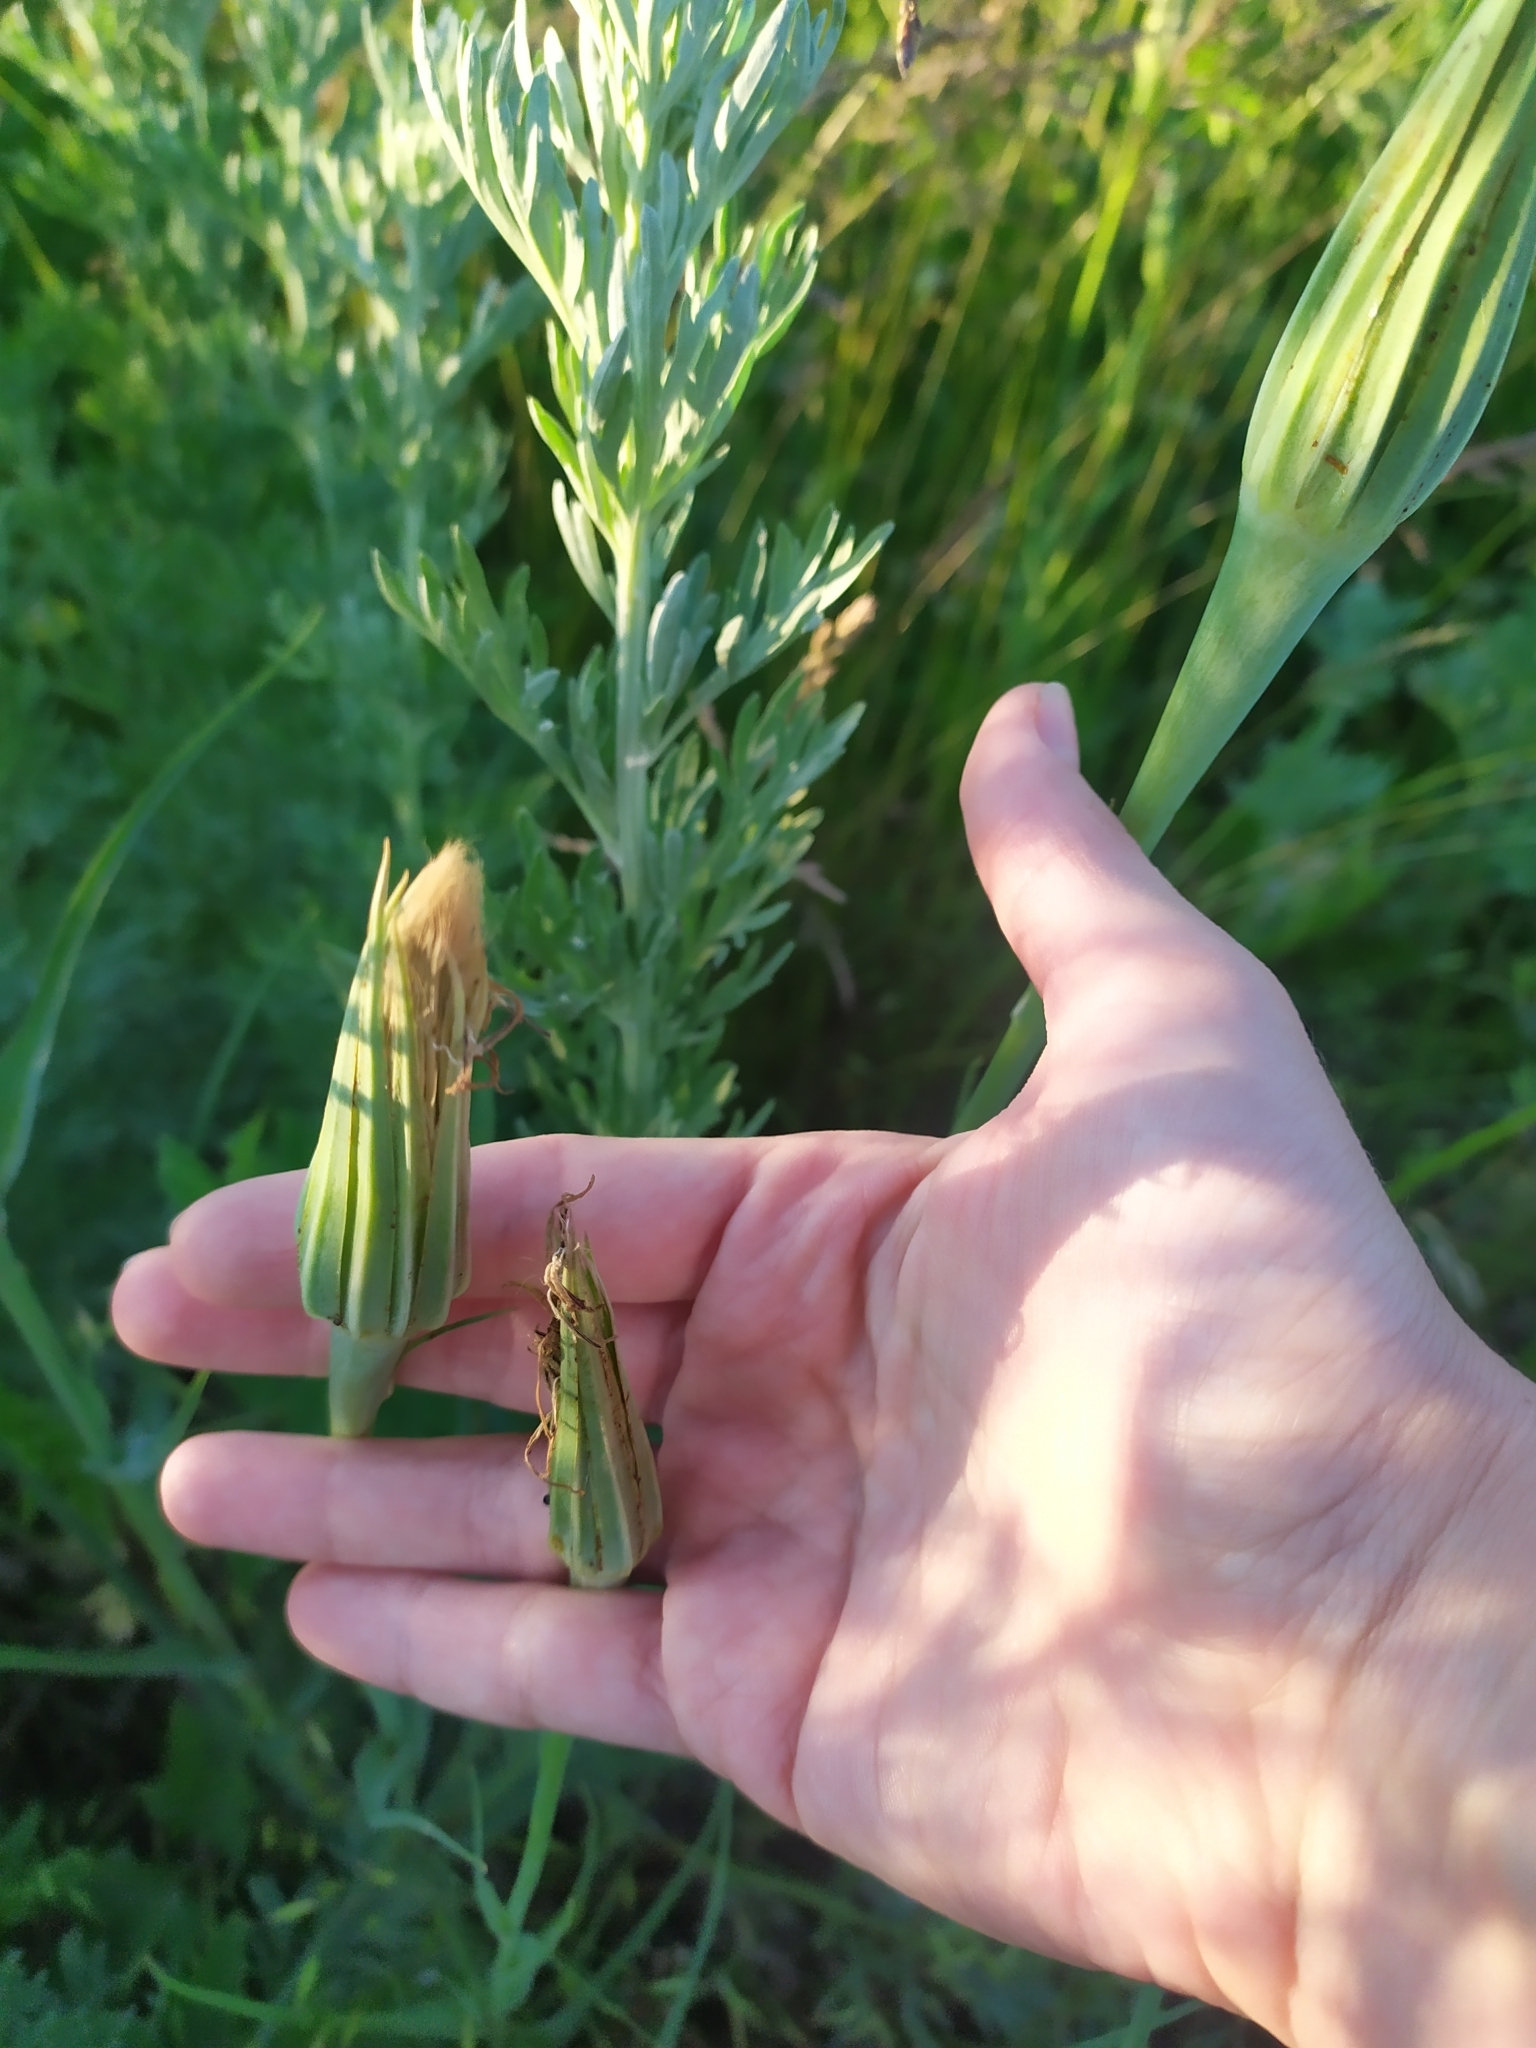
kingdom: Plantae
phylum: Tracheophyta
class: Magnoliopsida
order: Asterales
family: Asteraceae
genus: Tragopogon
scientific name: Tragopogon dubius
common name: Yellow salsify
